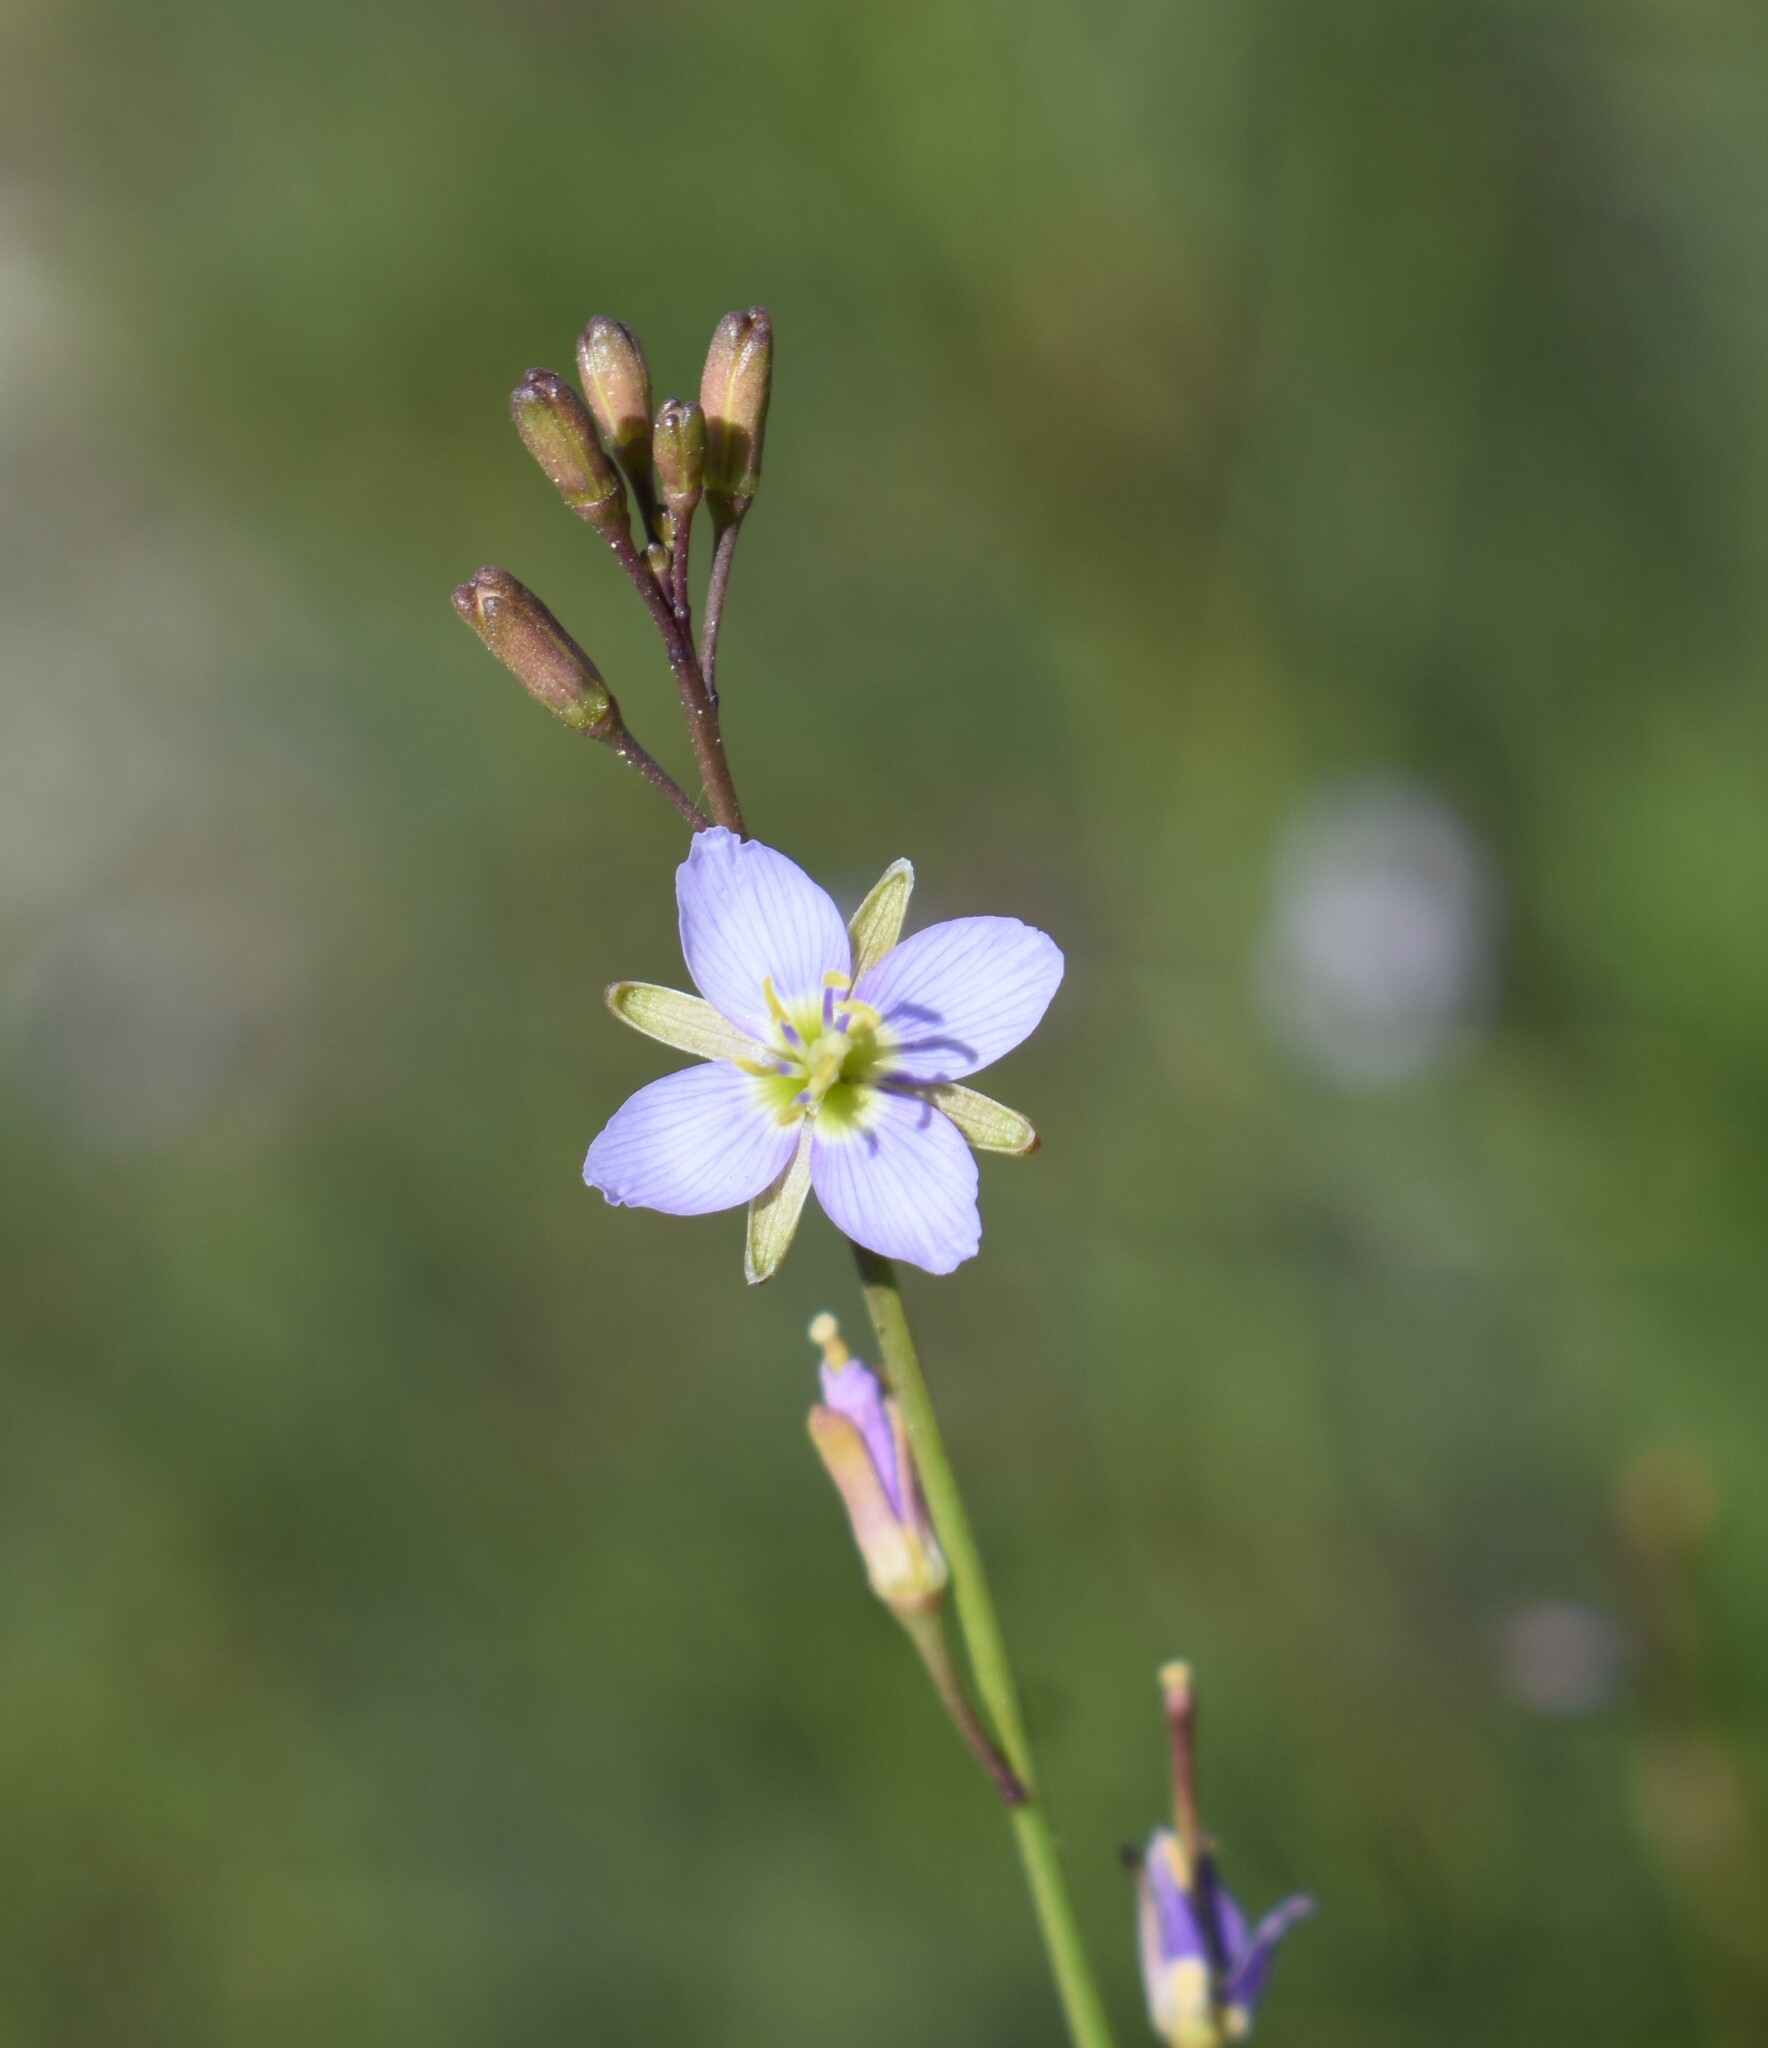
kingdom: Plantae
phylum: Tracheophyta
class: Magnoliopsida
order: Brassicales
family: Brassicaceae
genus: Heliophila
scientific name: Heliophila adpressa
